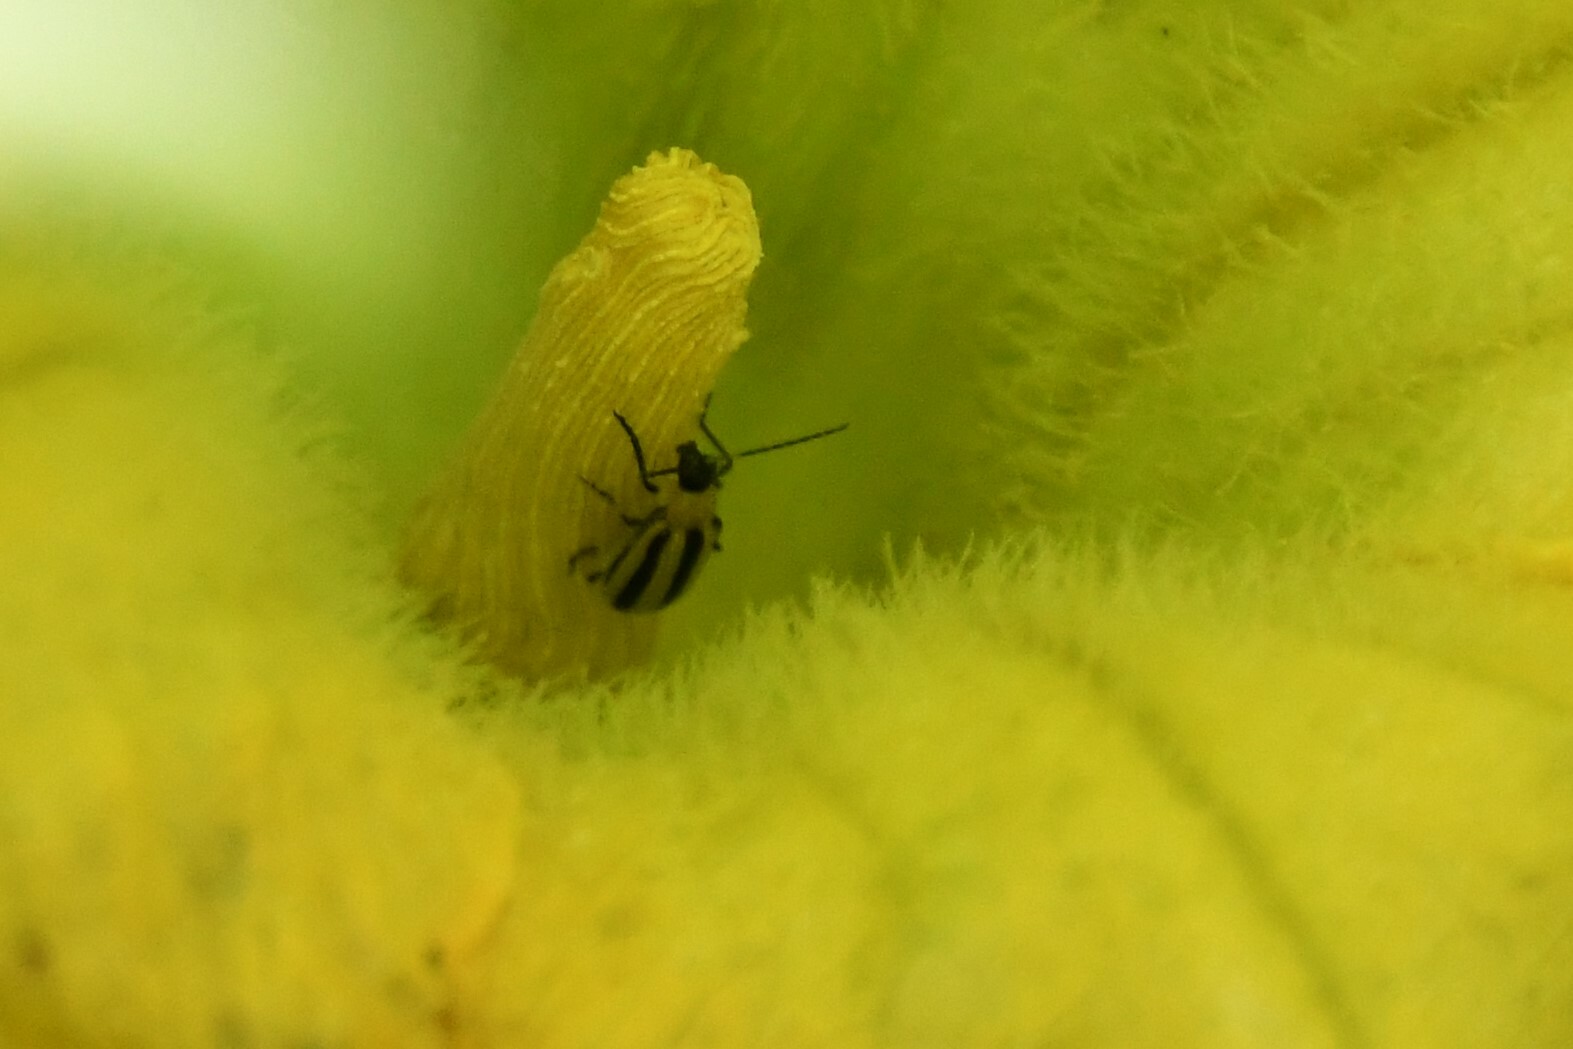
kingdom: Animalia
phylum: Arthropoda
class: Insecta
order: Coleoptera
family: Chrysomelidae
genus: Acalymma
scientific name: Acalymma vittatum
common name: Striped cucumber beetle
